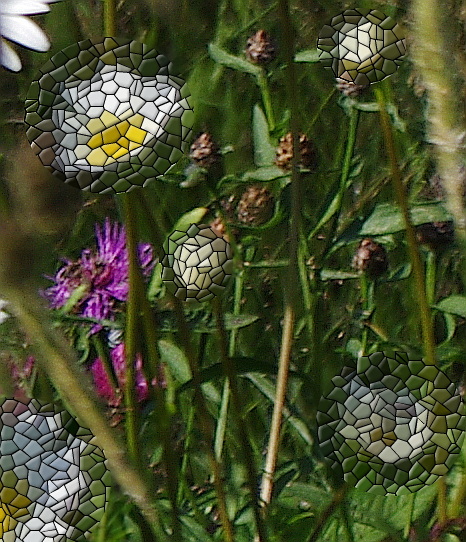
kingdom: Plantae
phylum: Tracheophyta
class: Magnoliopsida
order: Asterales
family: Asteraceae
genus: Centaurea
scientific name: Centaurea jacea
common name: Brown knapweed
